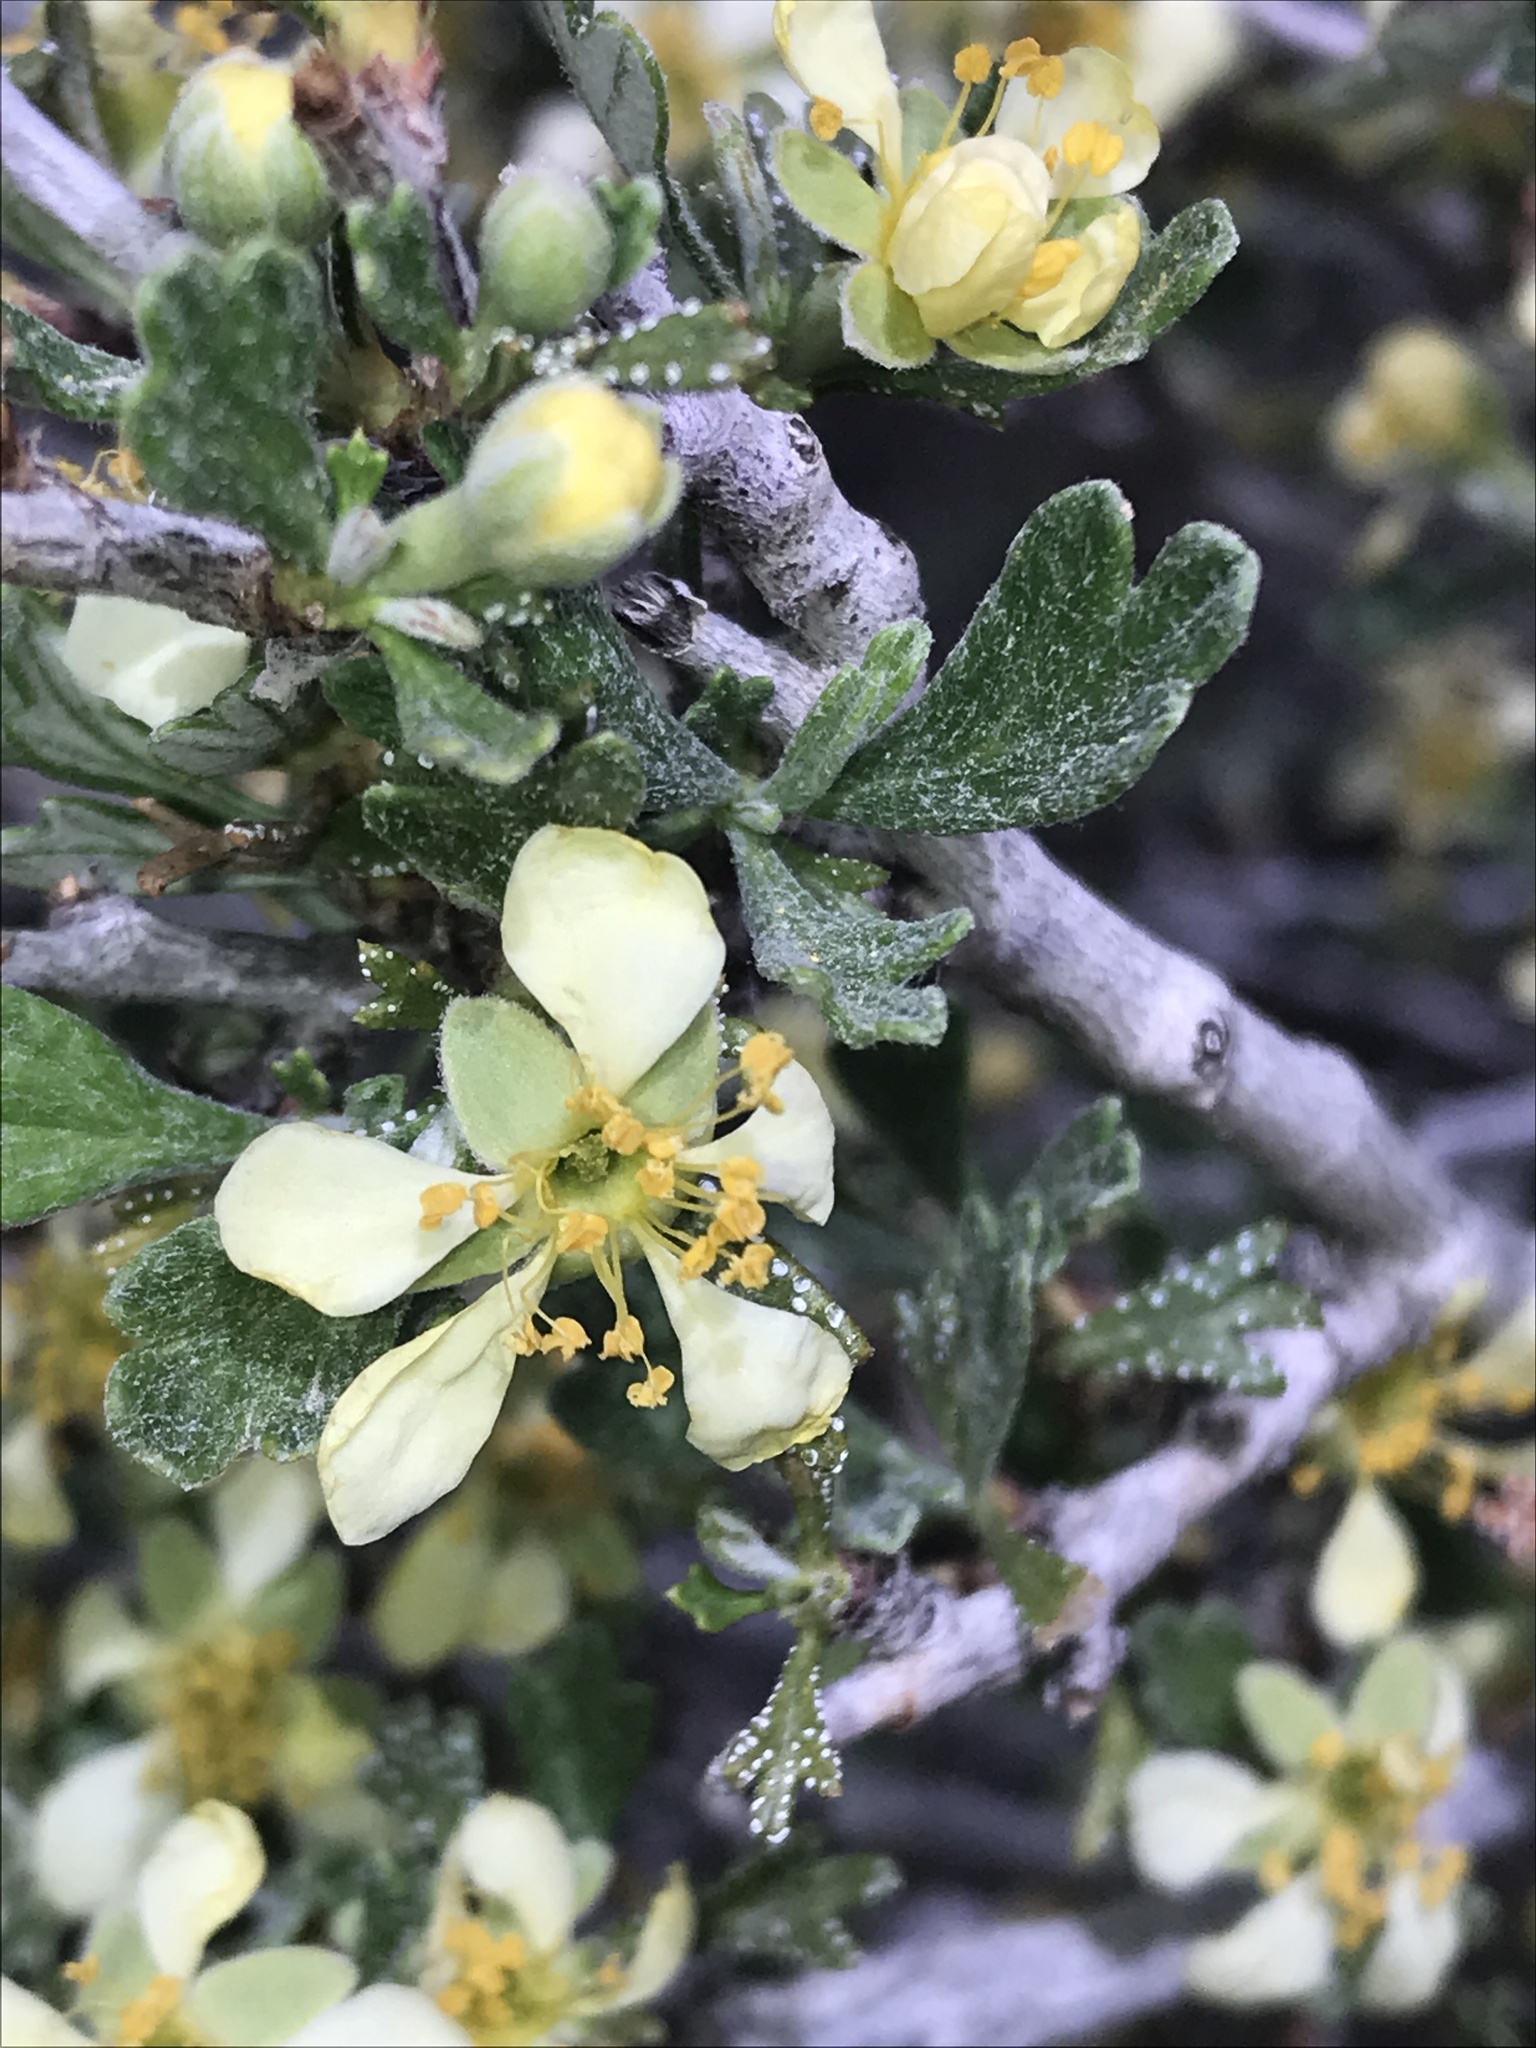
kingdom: Plantae
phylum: Tracheophyta
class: Magnoliopsida
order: Rosales
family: Rosaceae
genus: Purshia
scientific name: Purshia tridentata
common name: Antelope bitterbrush
